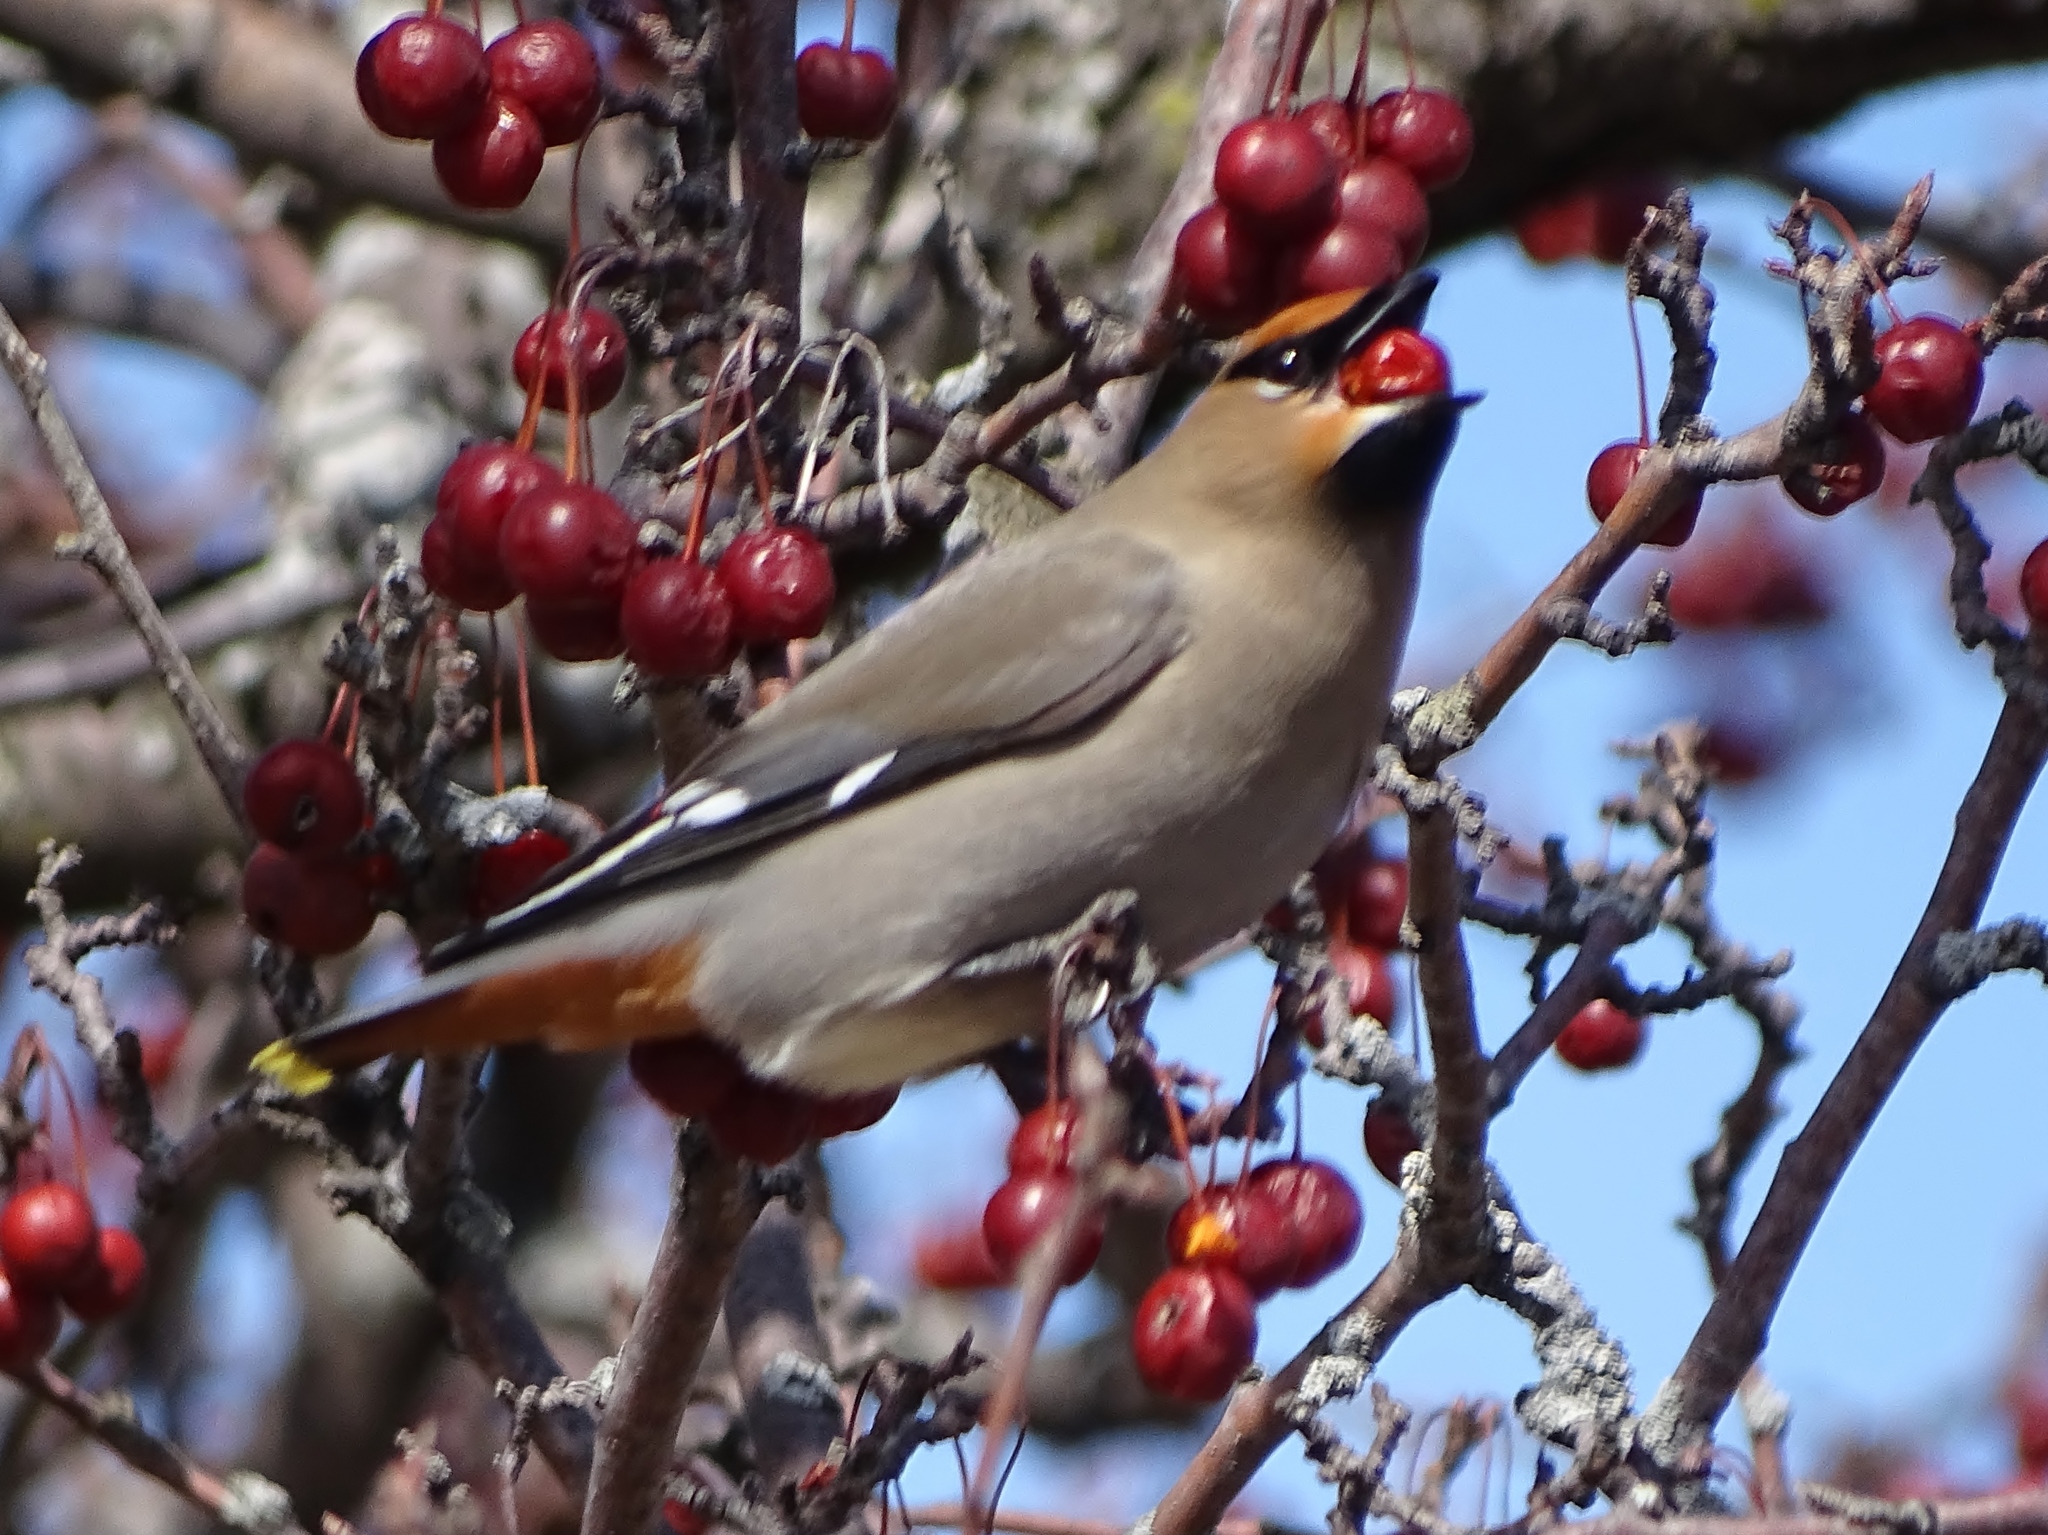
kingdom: Animalia
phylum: Chordata
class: Aves
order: Passeriformes
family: Bombycillidae
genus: Bombycilla
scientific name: Bombycilla garrulus
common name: Bohemian waxwing
